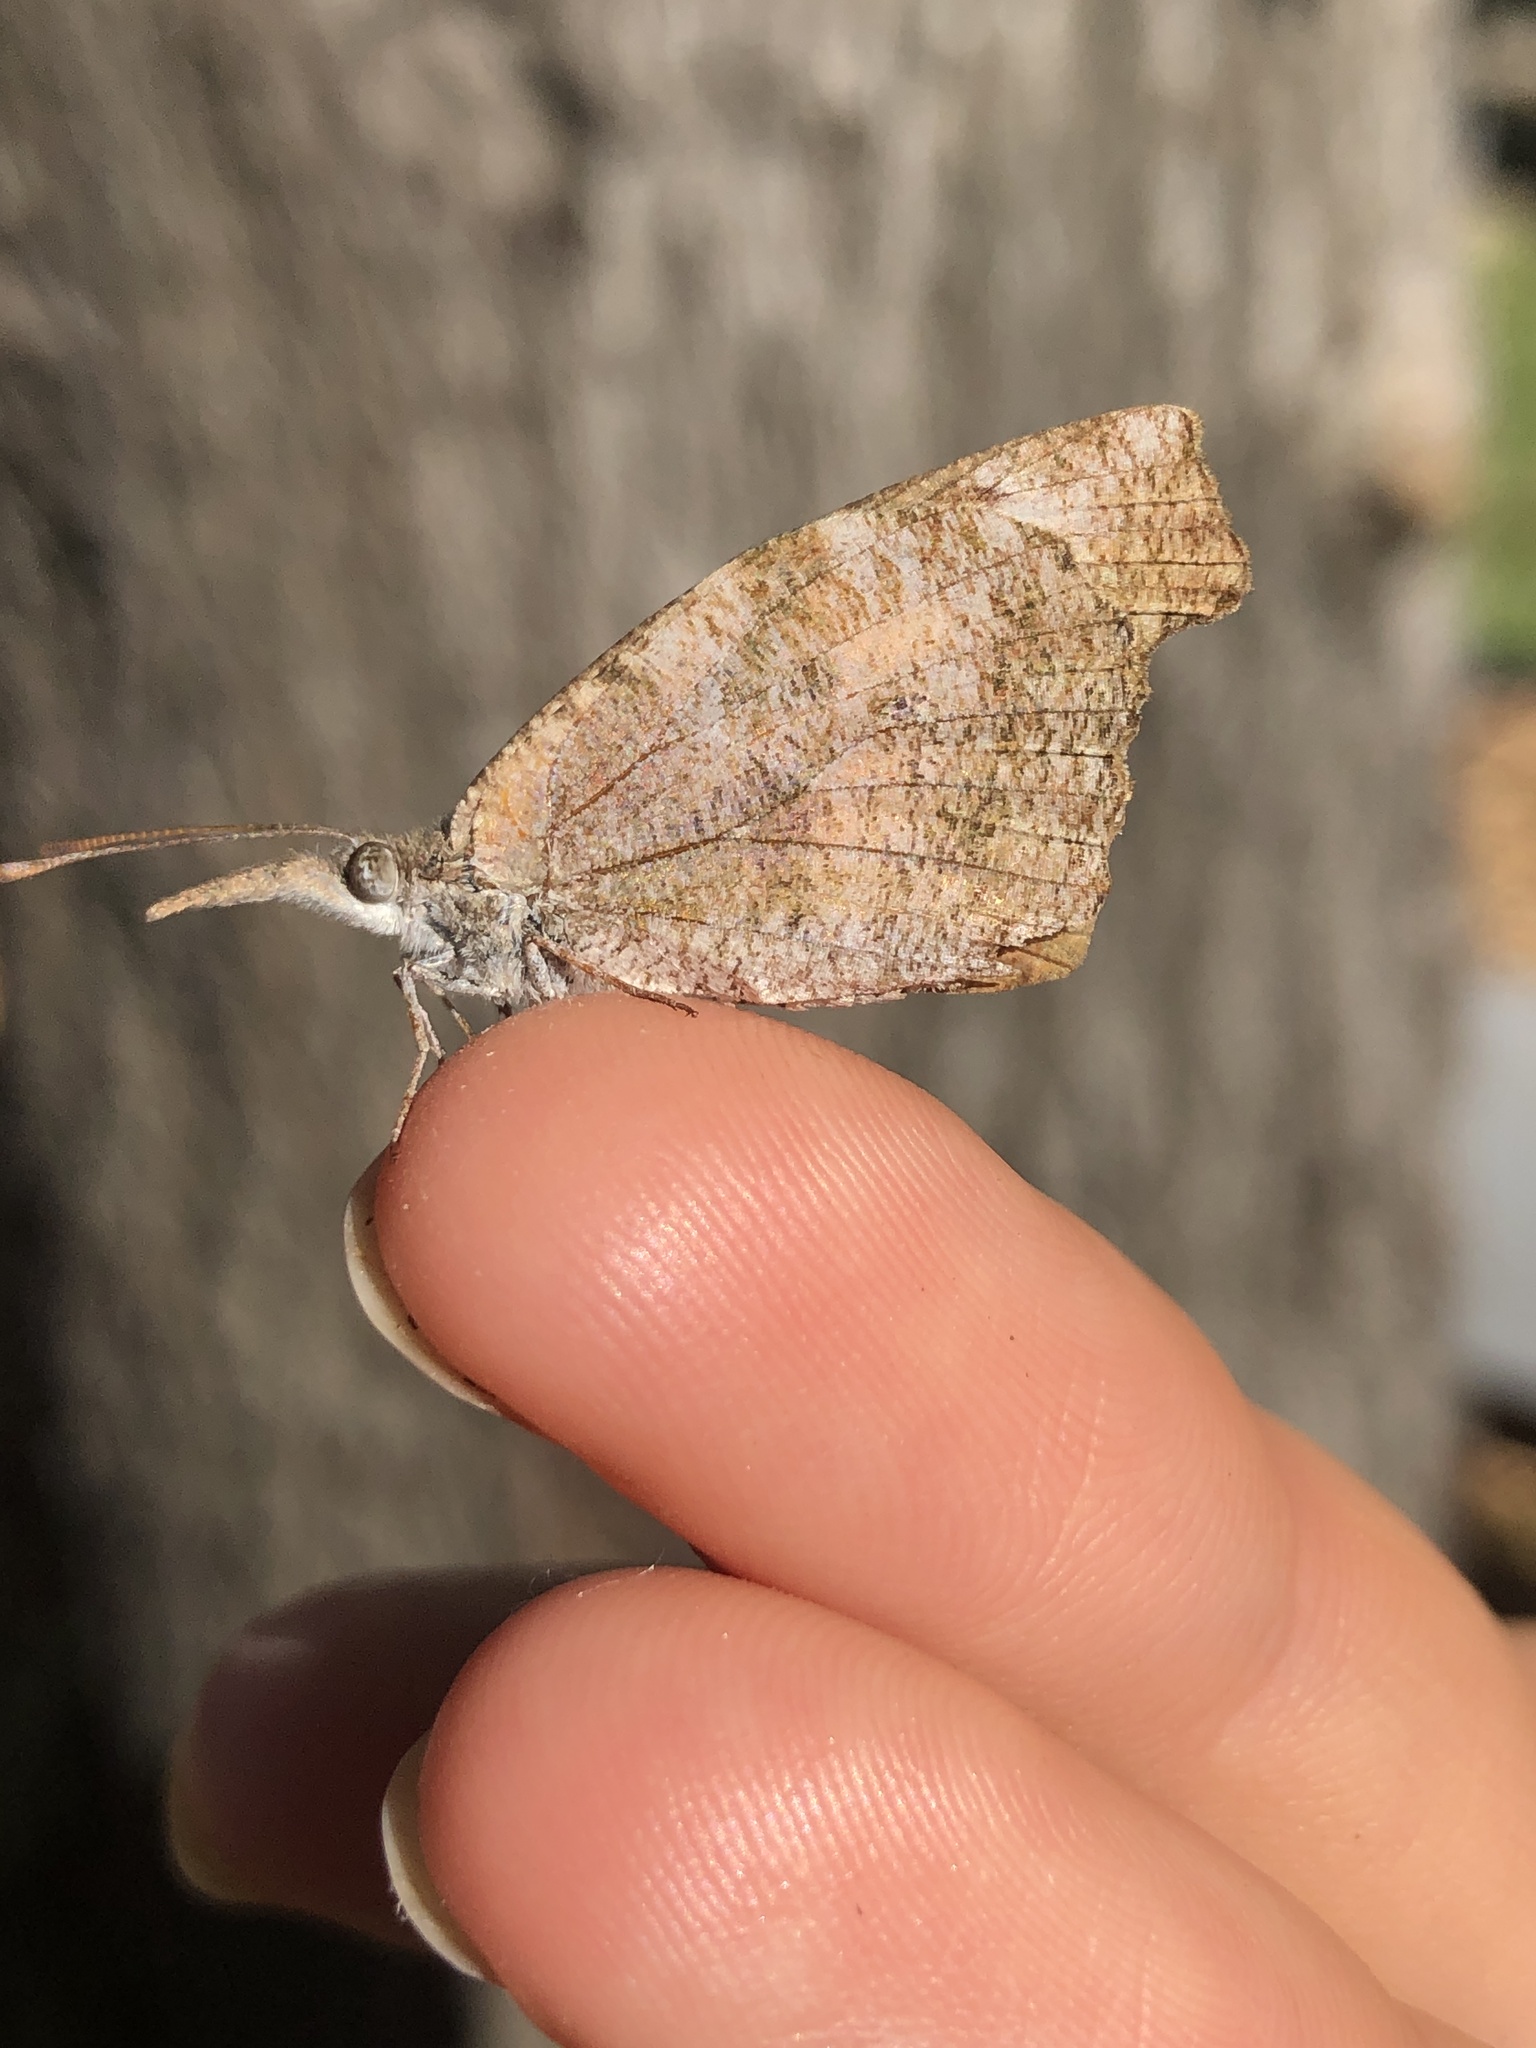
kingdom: Animalia
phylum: Arthropoda
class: Insecta
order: Lepidoptera
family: Nymphalidae
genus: Libytheana
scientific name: Libytheana carinenta
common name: American snout
